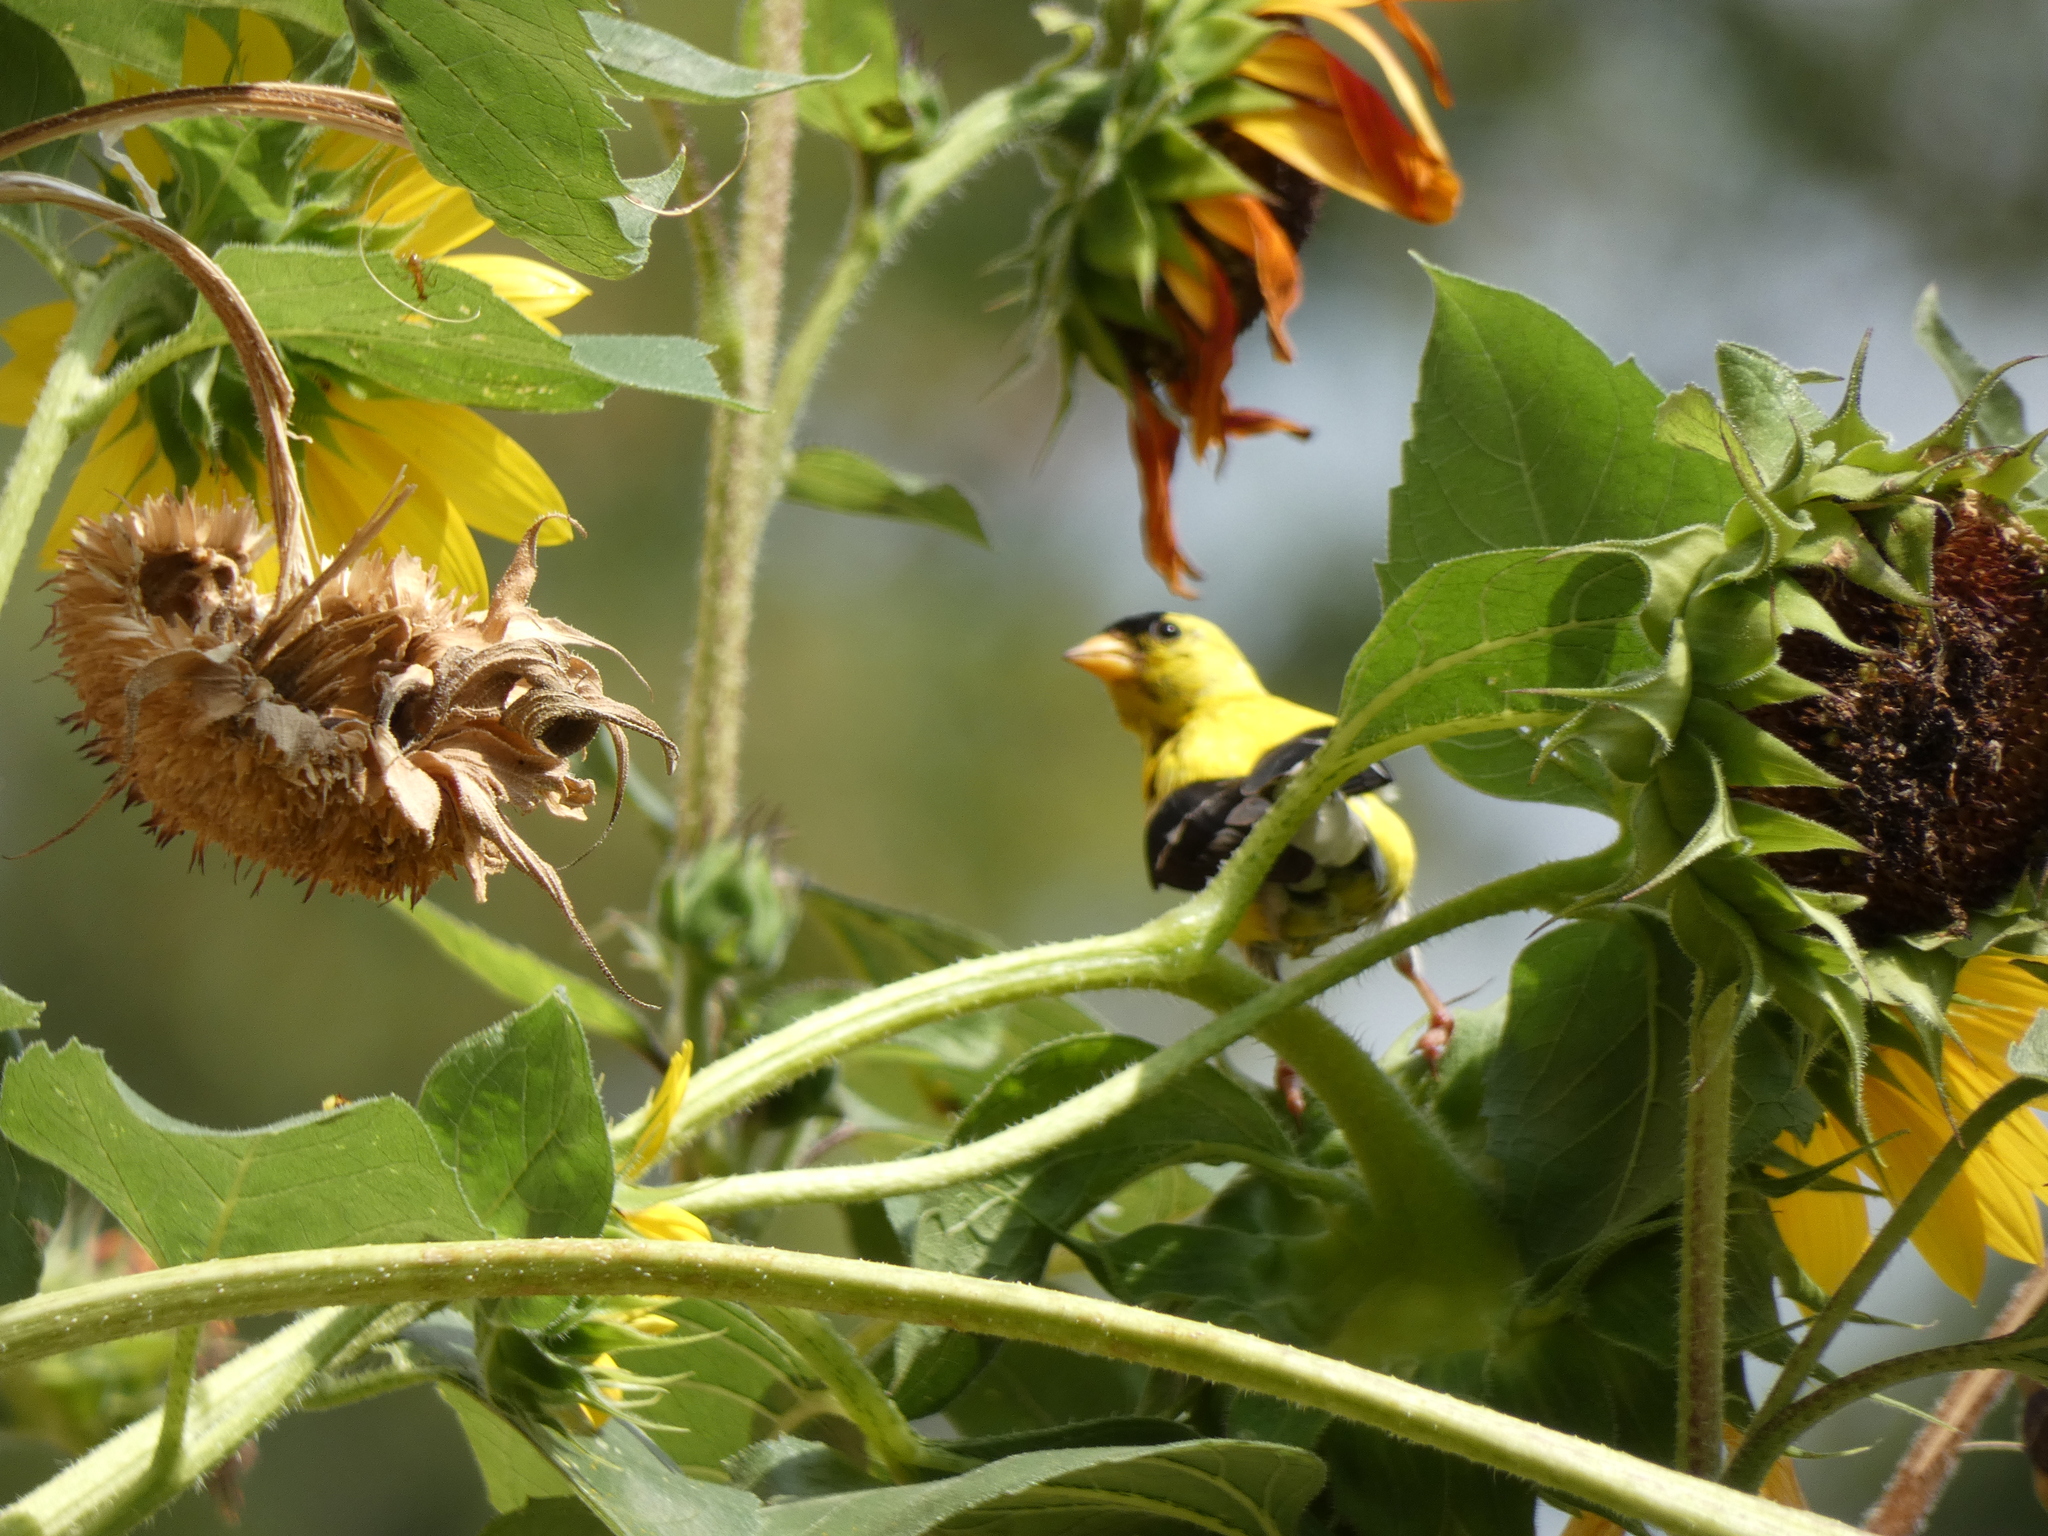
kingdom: Animalia
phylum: Chordata
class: Aves
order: Passeriformes
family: Fringillidae
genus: Spinus
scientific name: Spinus tristis
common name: American goldfinch
